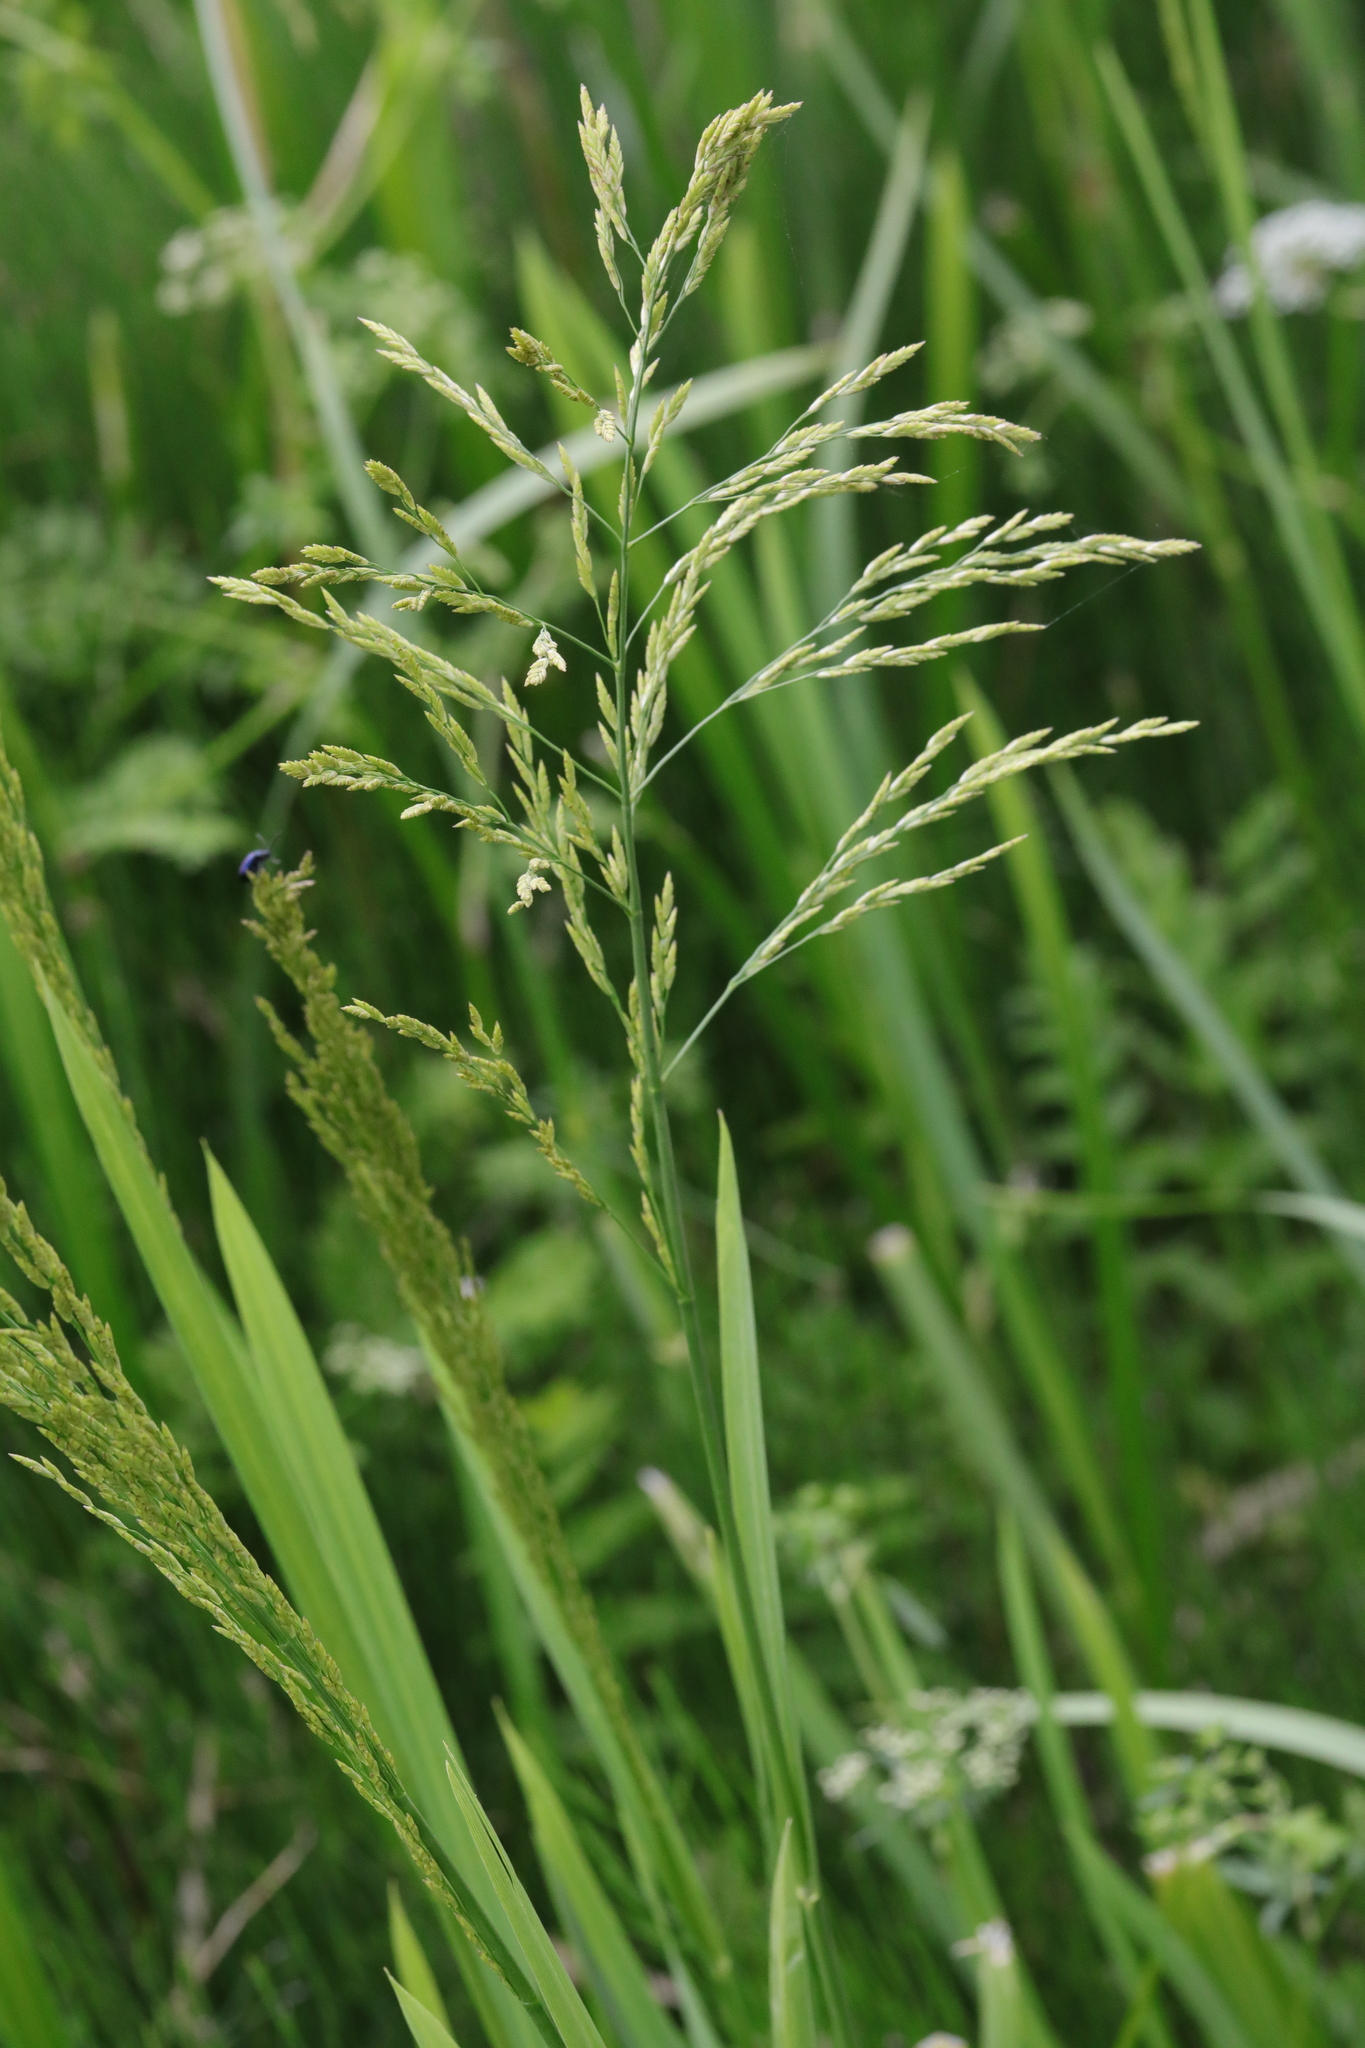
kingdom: Plantae
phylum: Tracheophyta
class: Liliopsida
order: Poales
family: Poaceae
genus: Glyceria
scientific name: Glyceria maxima
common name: Reed mannagrass
